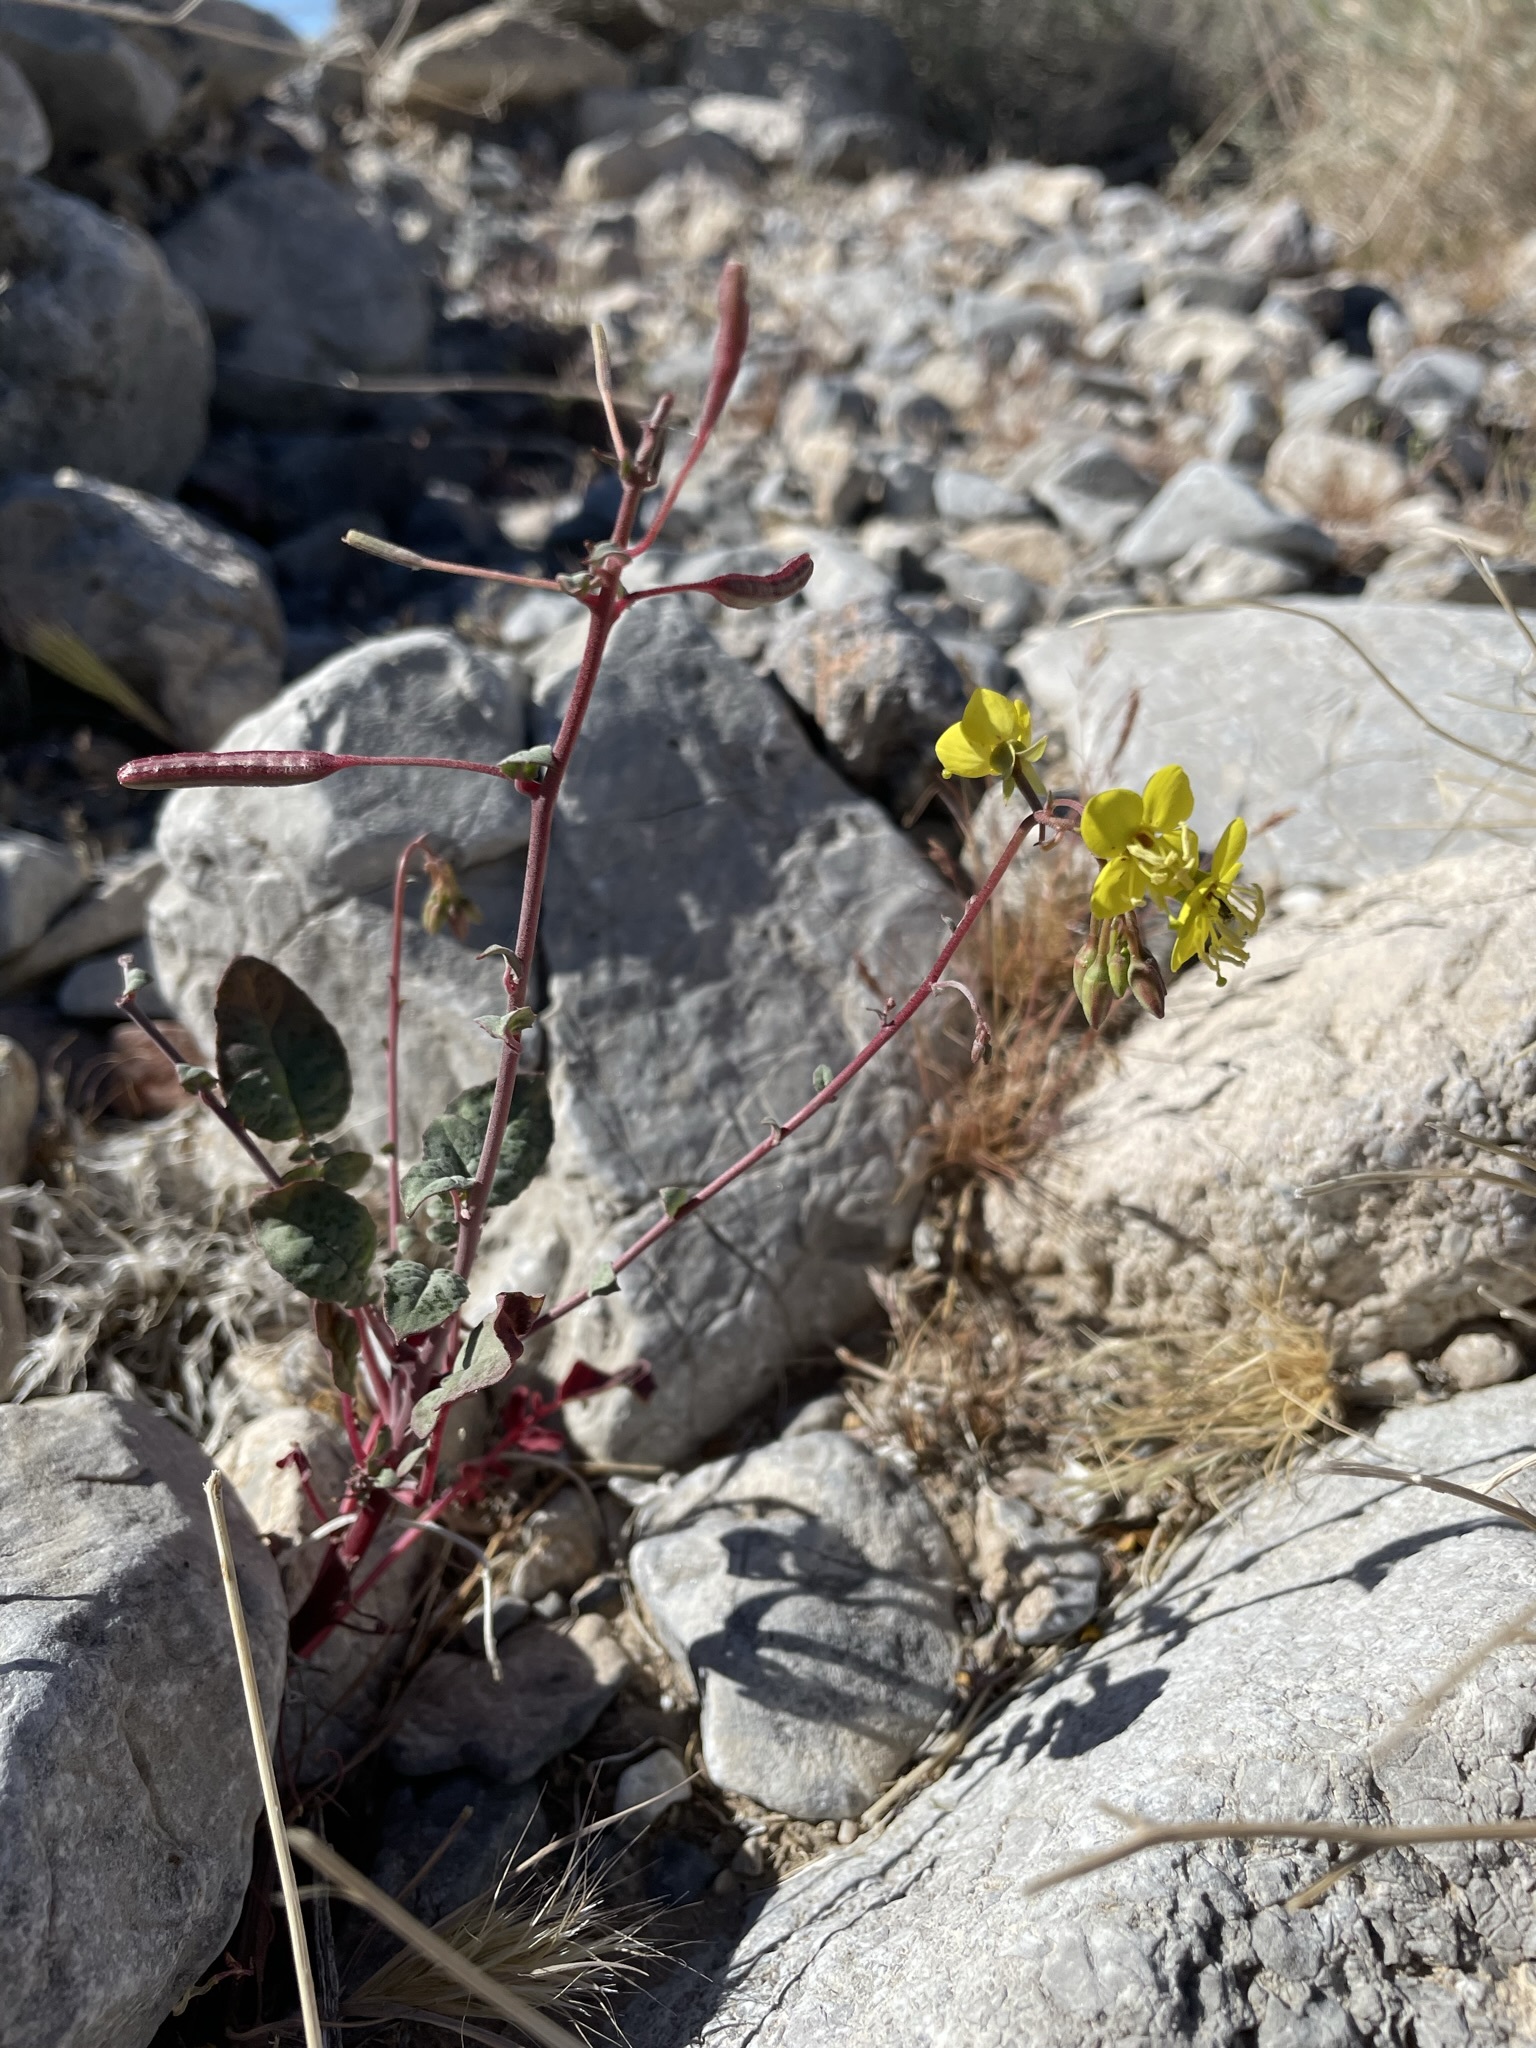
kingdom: Plantae
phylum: Tracheophyta
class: Magnoliopsida
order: Myrtales
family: Onagraceae
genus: Chylismia
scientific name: Chylismia munzii
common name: Death valley suncup
